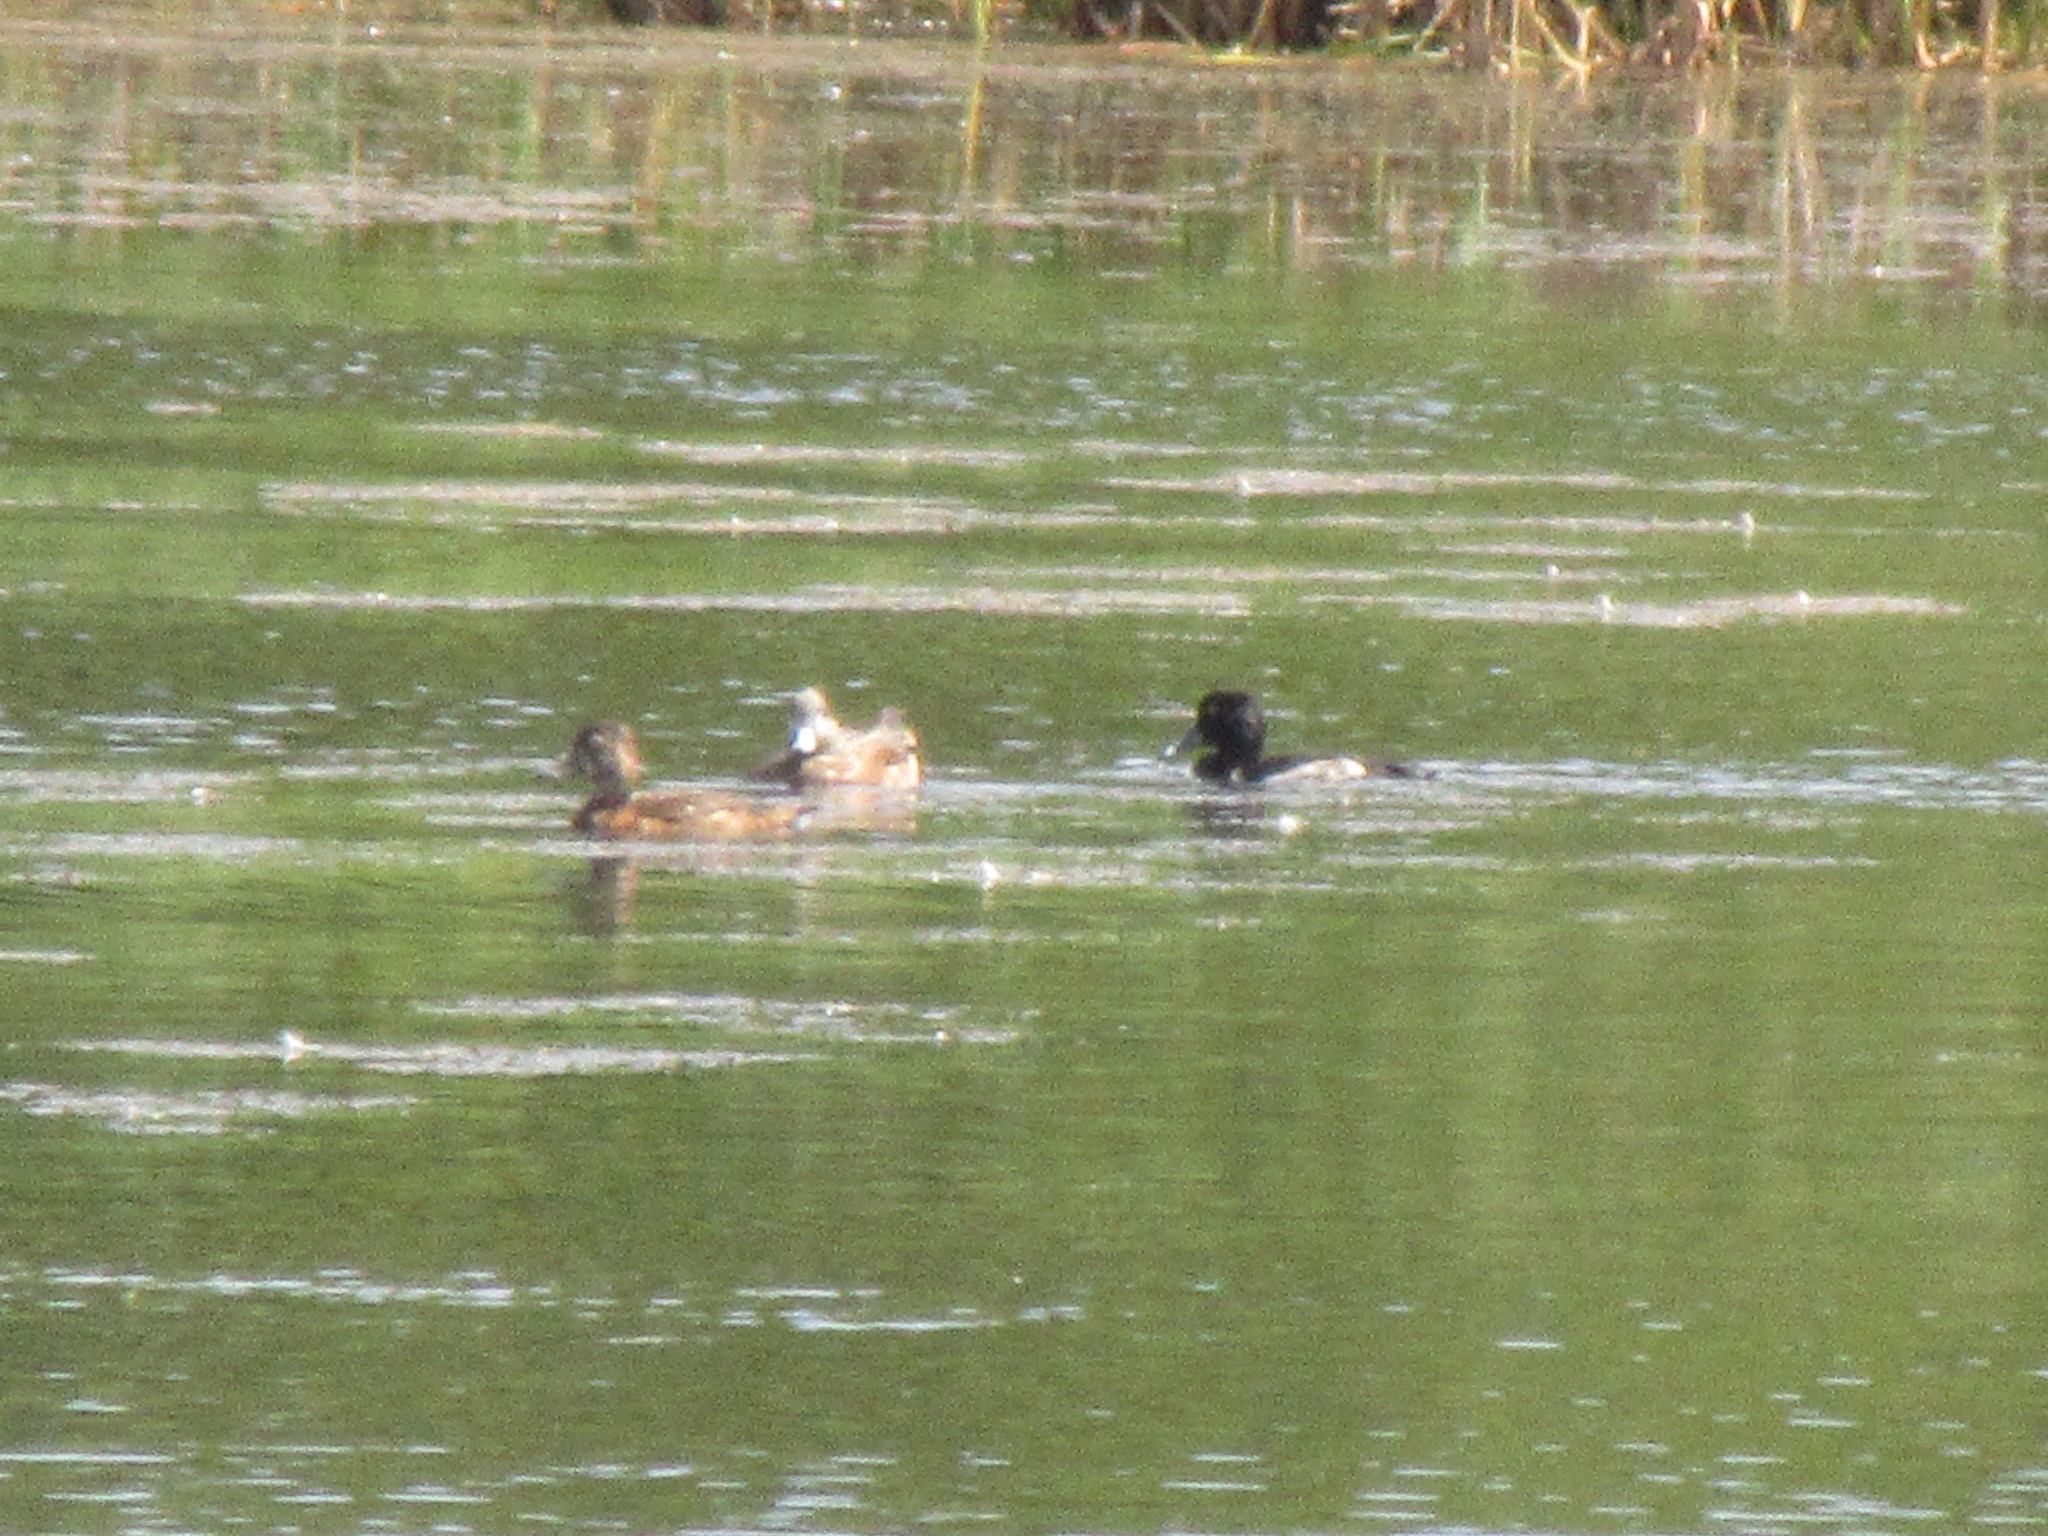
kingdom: Animalia
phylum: Chordata
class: Aves
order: Anseriformes
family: Anatidae
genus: Aythya
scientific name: Aythya collaris
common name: Ring-necked duck
